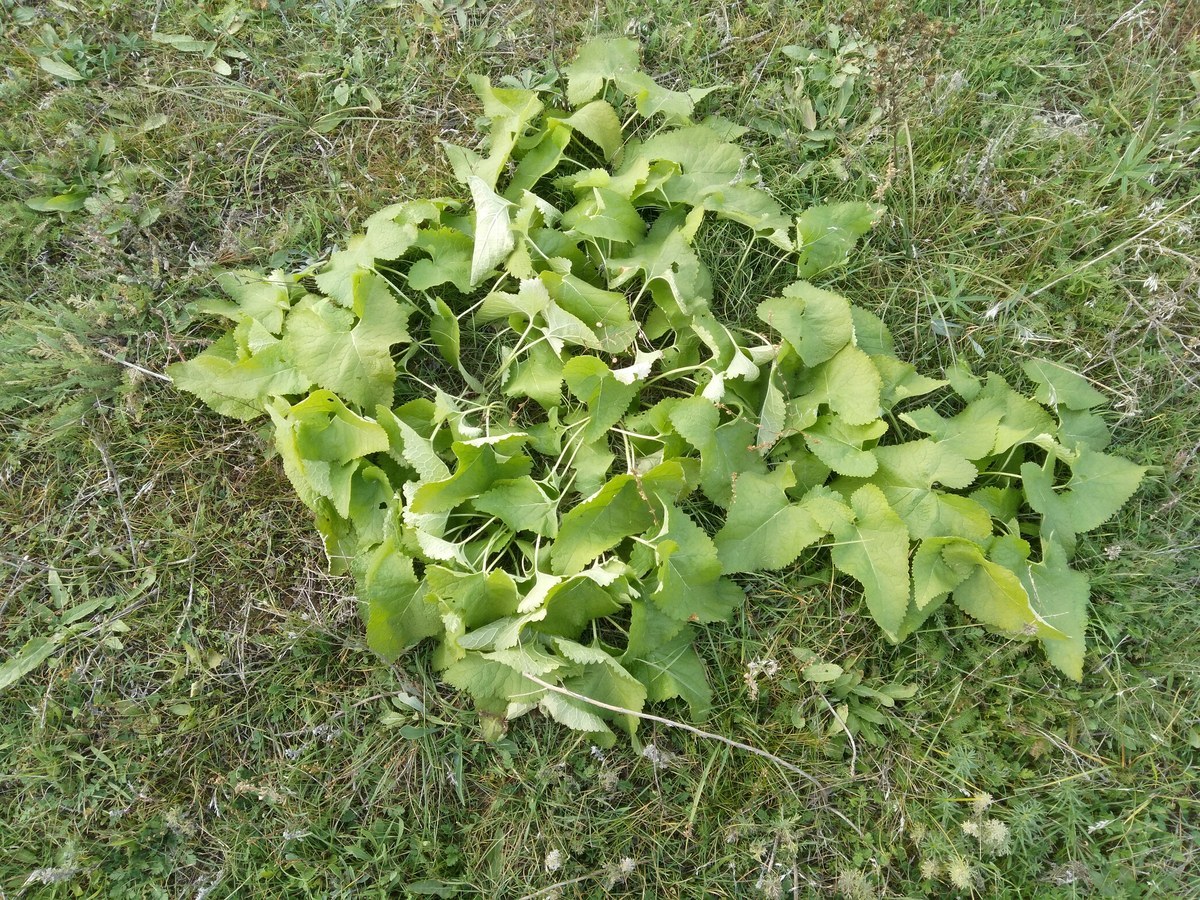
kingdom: Plantae
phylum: Tracheophyta
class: Magnoliopsida
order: Lamiales
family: Lamiaceae
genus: Phlomoides
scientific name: Phlomoides tuberosa
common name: Tuberous jerusalem sage
